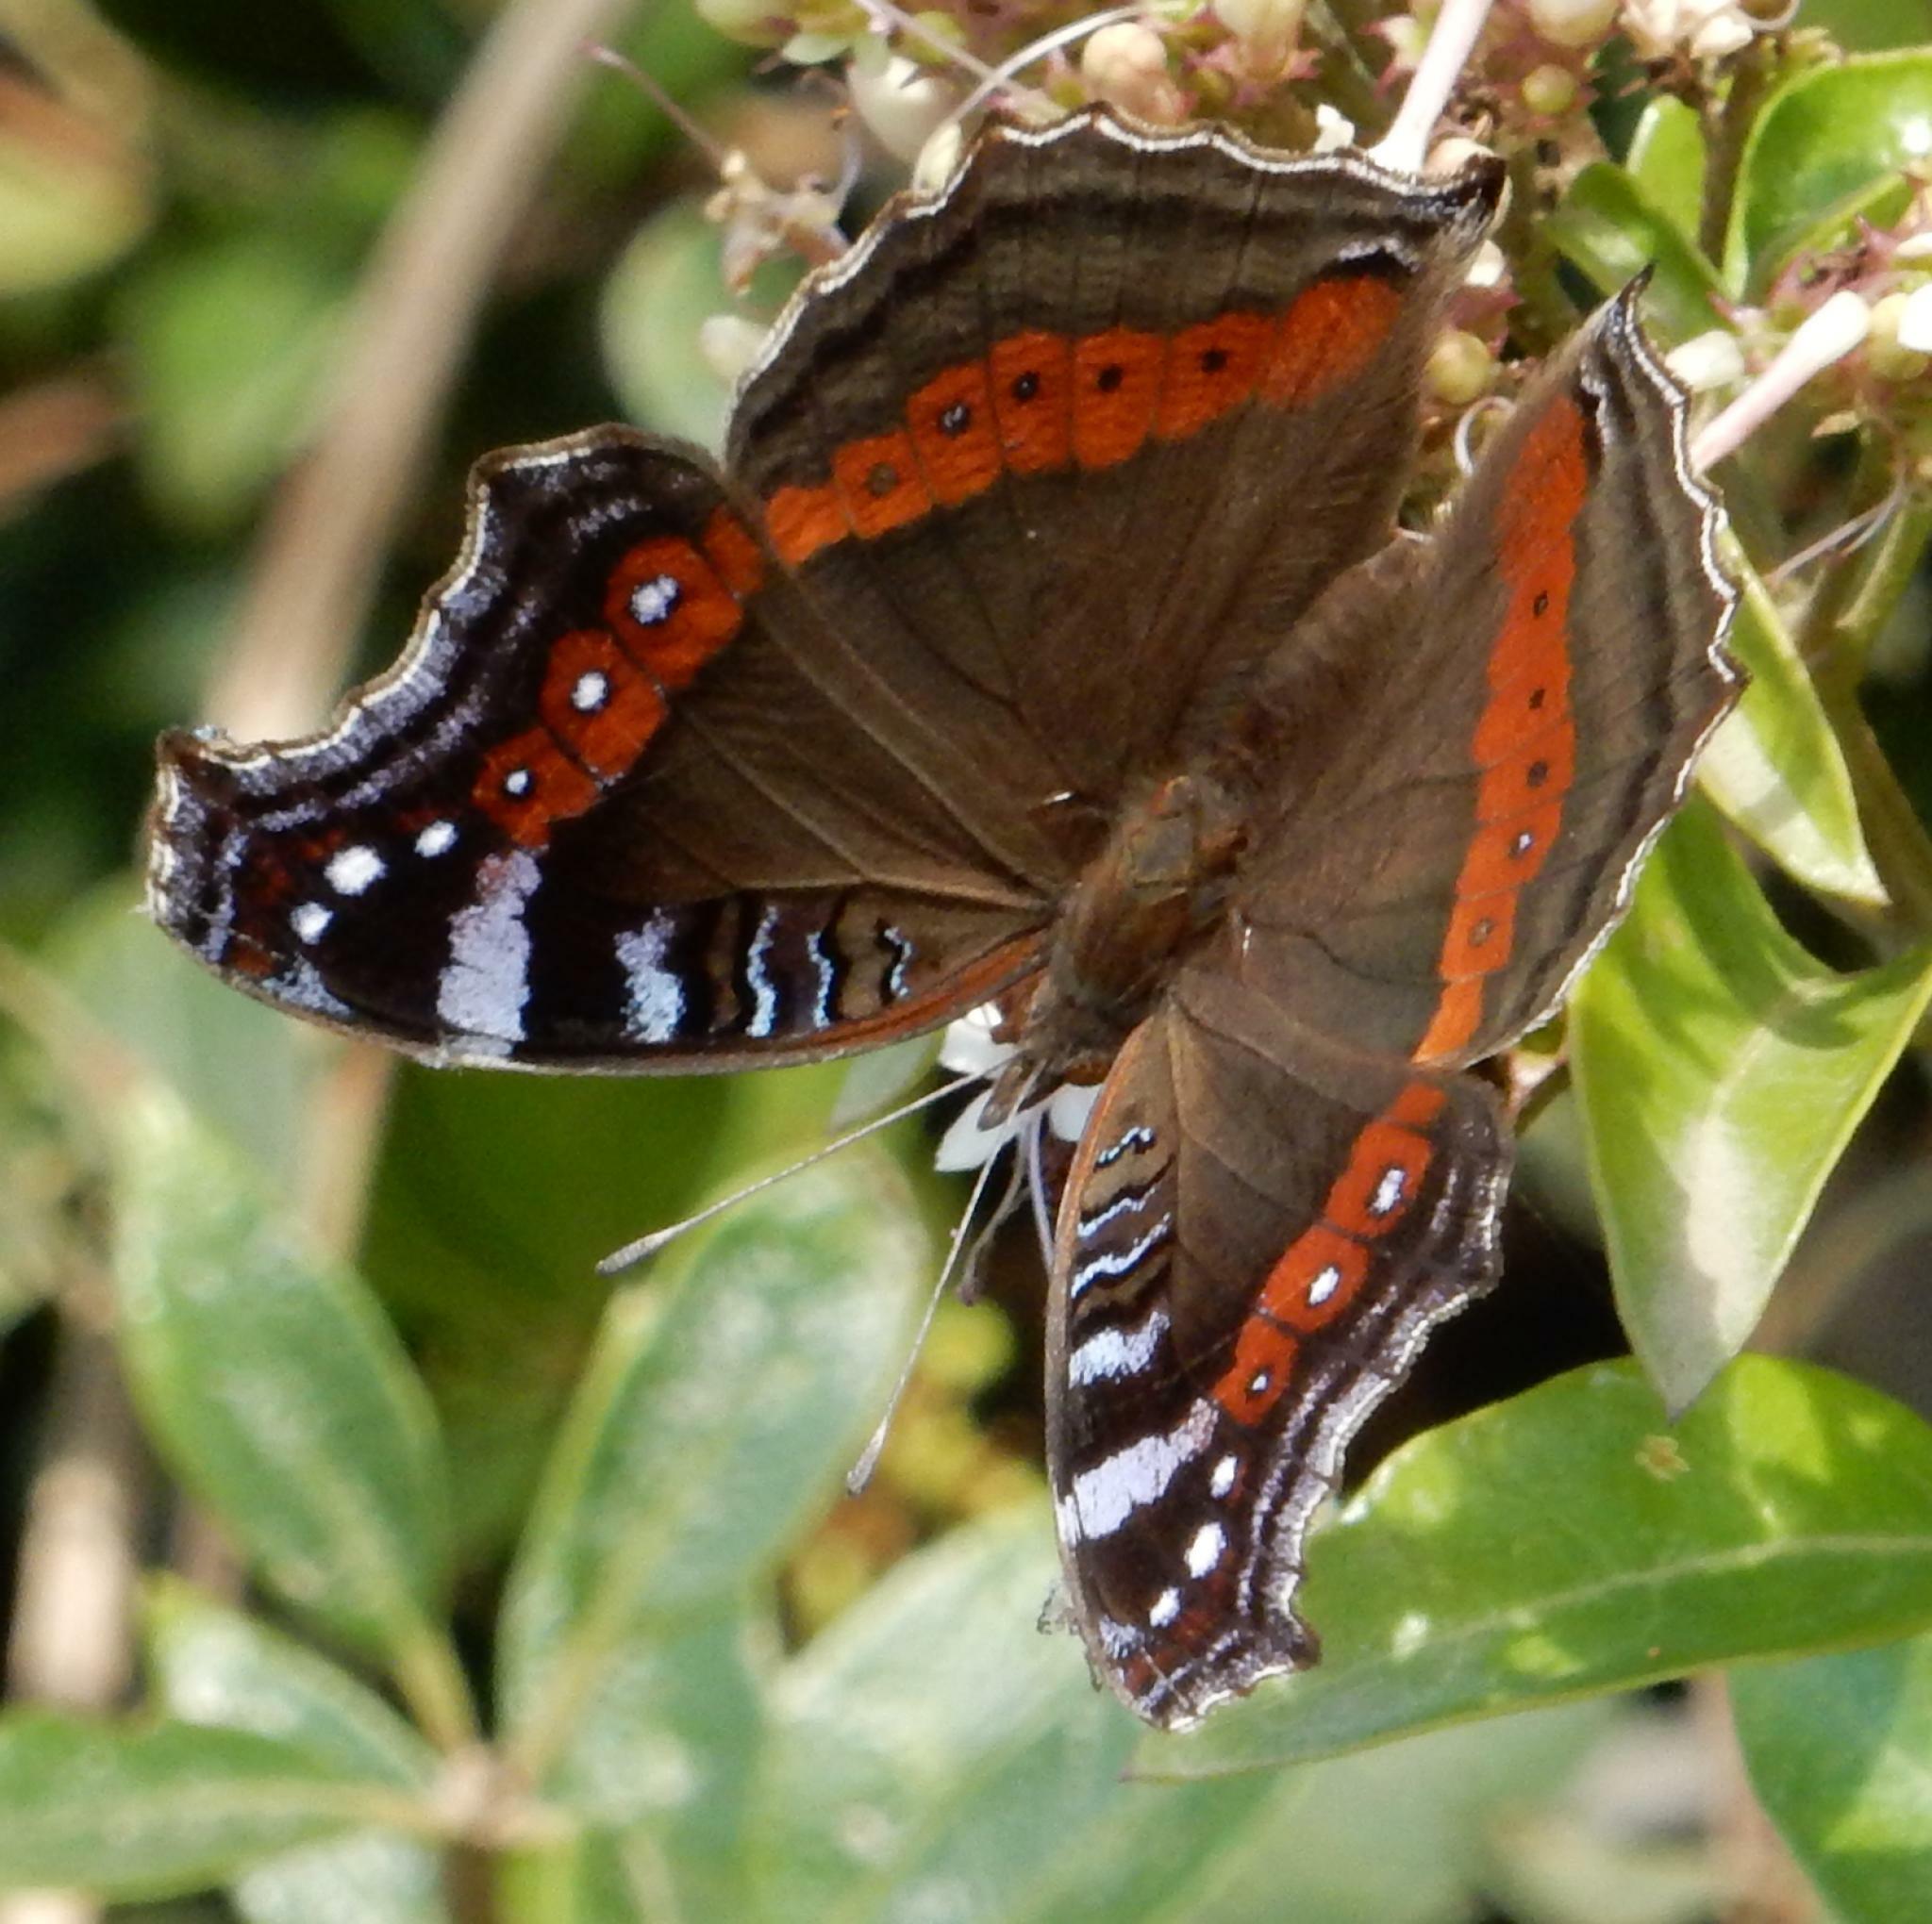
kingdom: Animalia
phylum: Arthropoda
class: Insecta
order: Lepidoptera
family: Nymphalidae
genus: Junonia
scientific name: Junonia archesia
